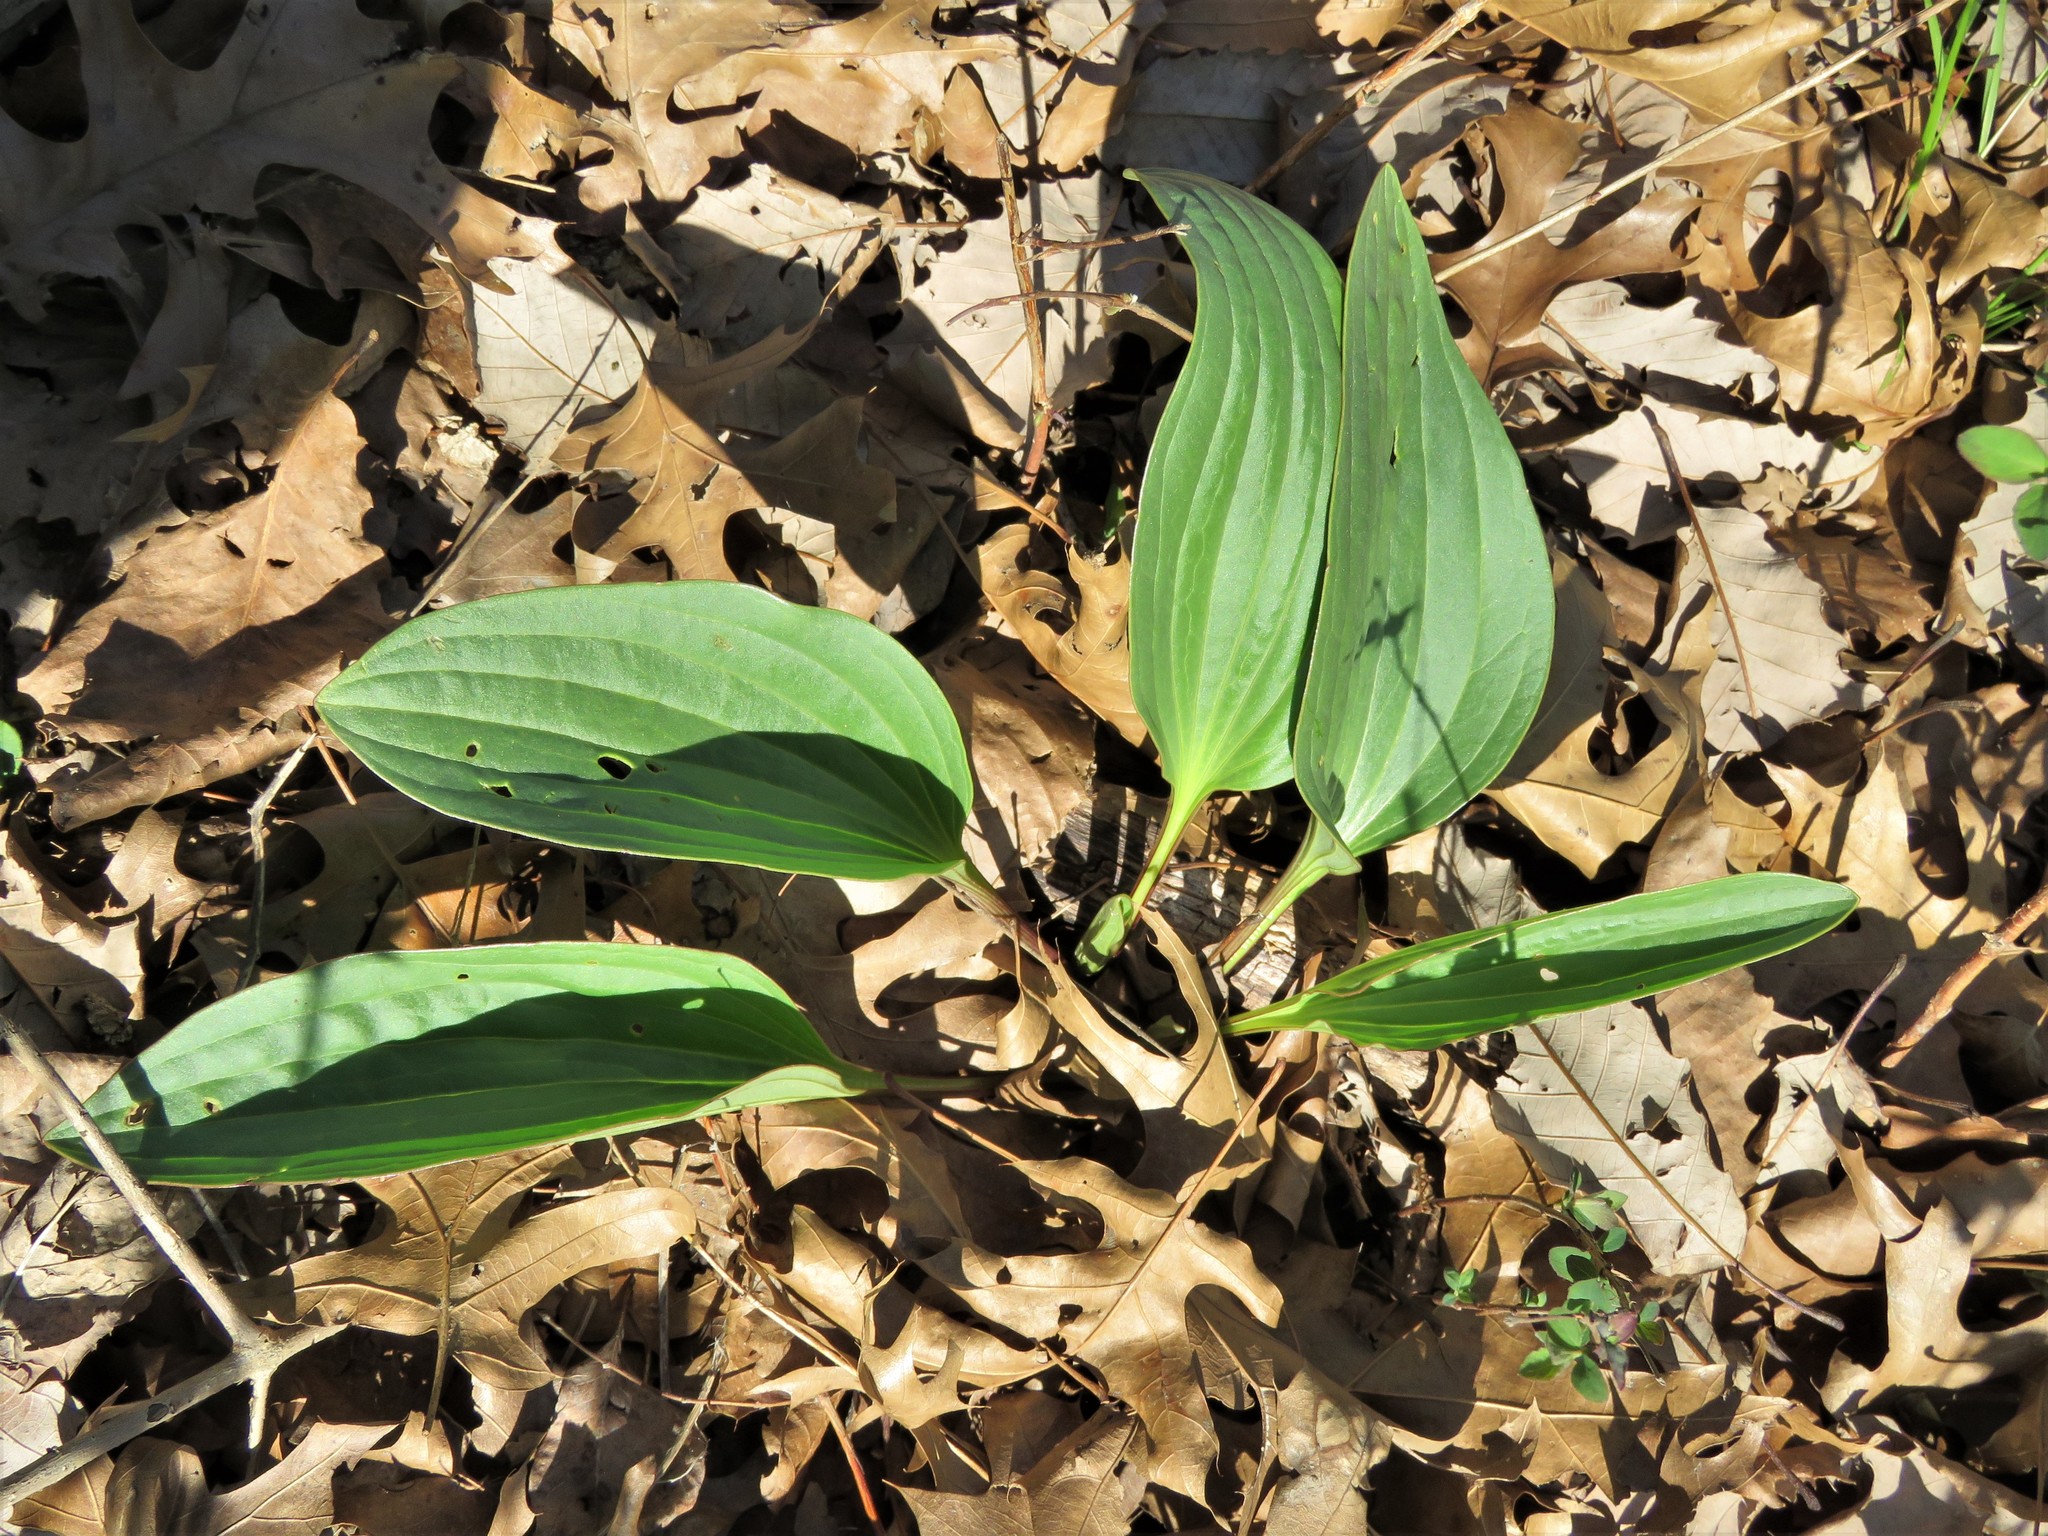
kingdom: Plantae
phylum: Tracheophyta
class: Magnoliopsida
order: Asterales
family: Asteraceae
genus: Arnoglossum
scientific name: Arnoglossum plantagineum
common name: Groove-stemmed indian-plantain
